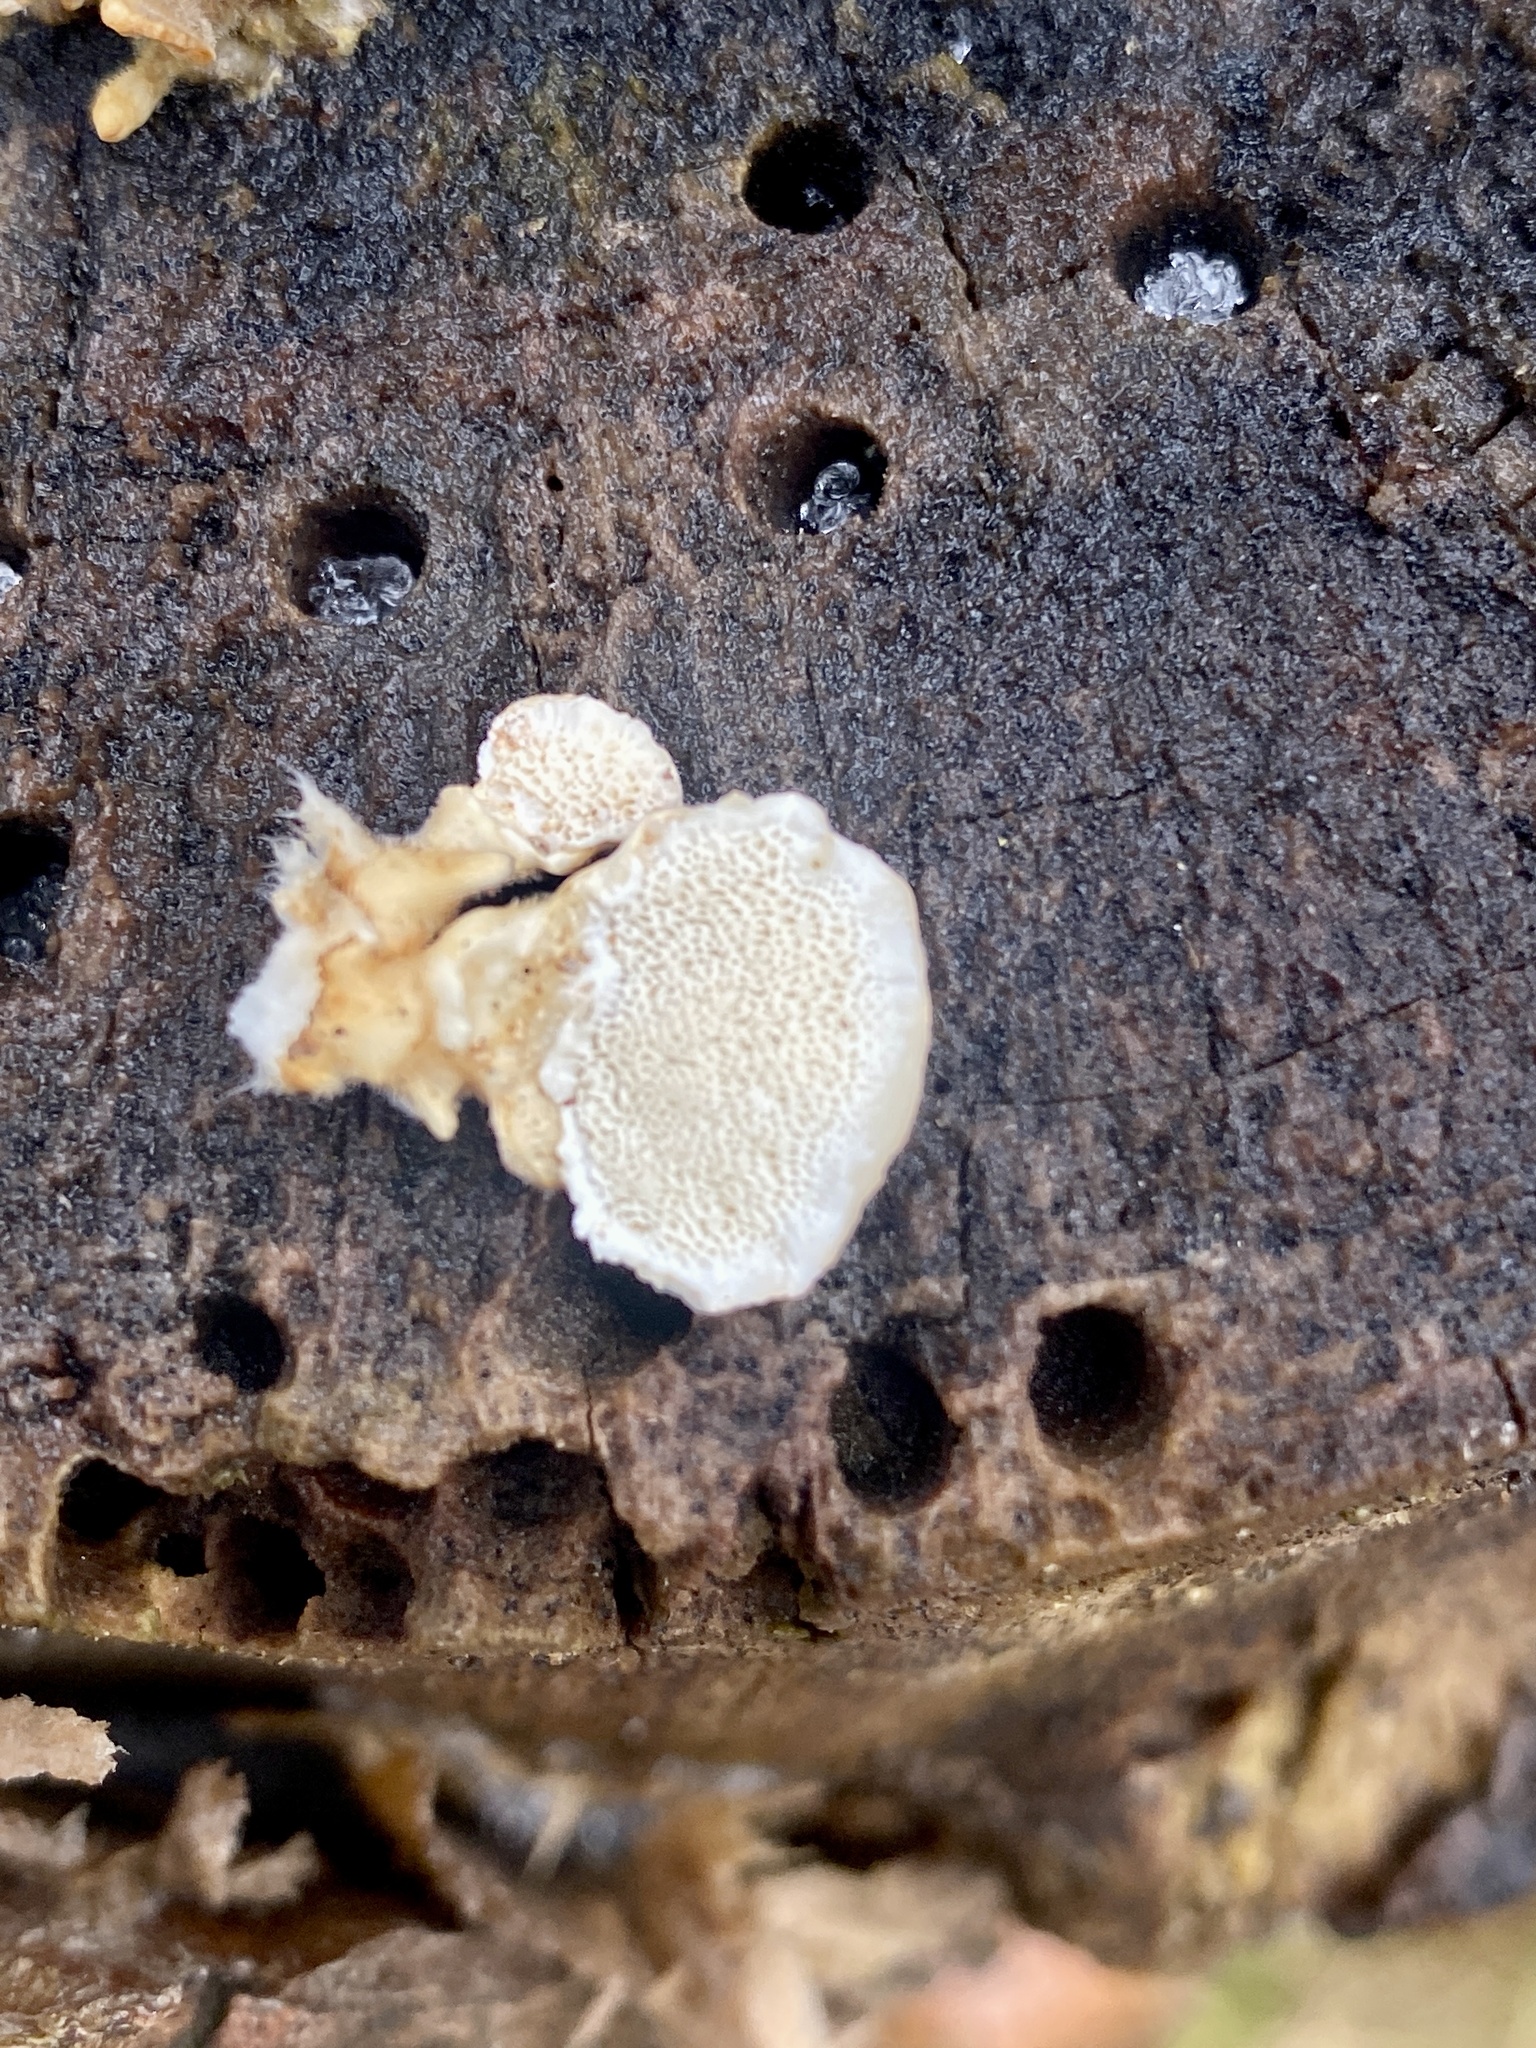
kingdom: Fungi
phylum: Basidiomycota
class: Agaricomycetes
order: Polyporales
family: Polyporaceae
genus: Trametes
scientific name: Trametes versicolor
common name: Turkeytail
